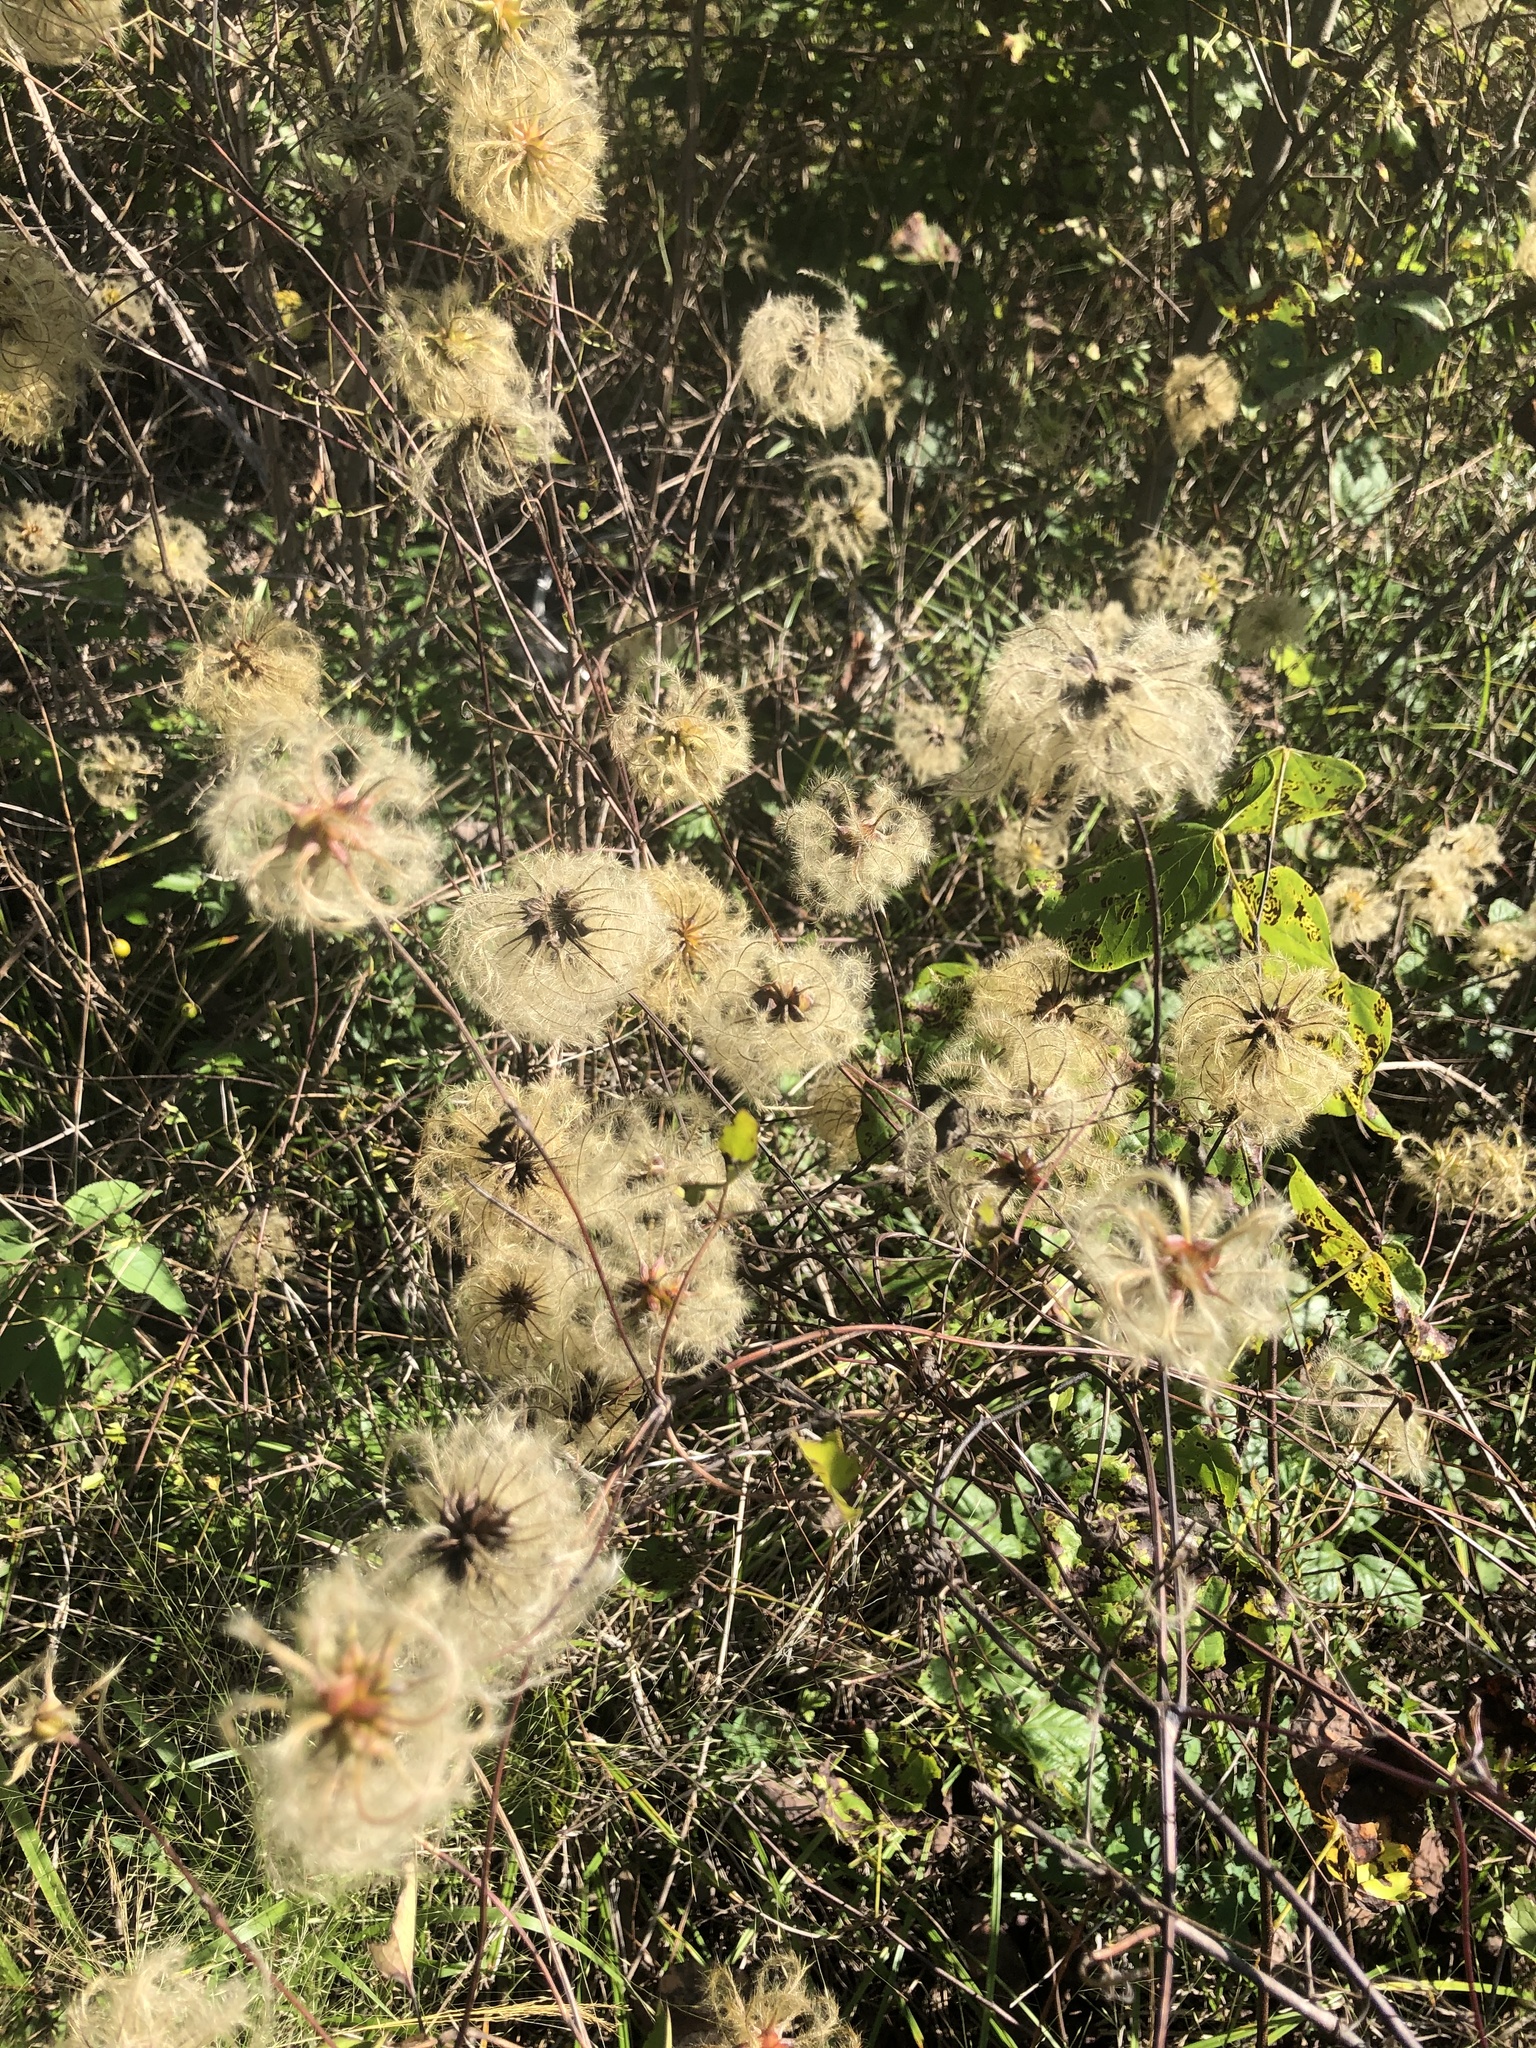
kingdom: Plantae
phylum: Tracheophyta
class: Magnoliopsida
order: Ranunculales
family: Ranunculaceae
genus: Clematis
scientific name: Clematis viorna
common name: Leather-flower
